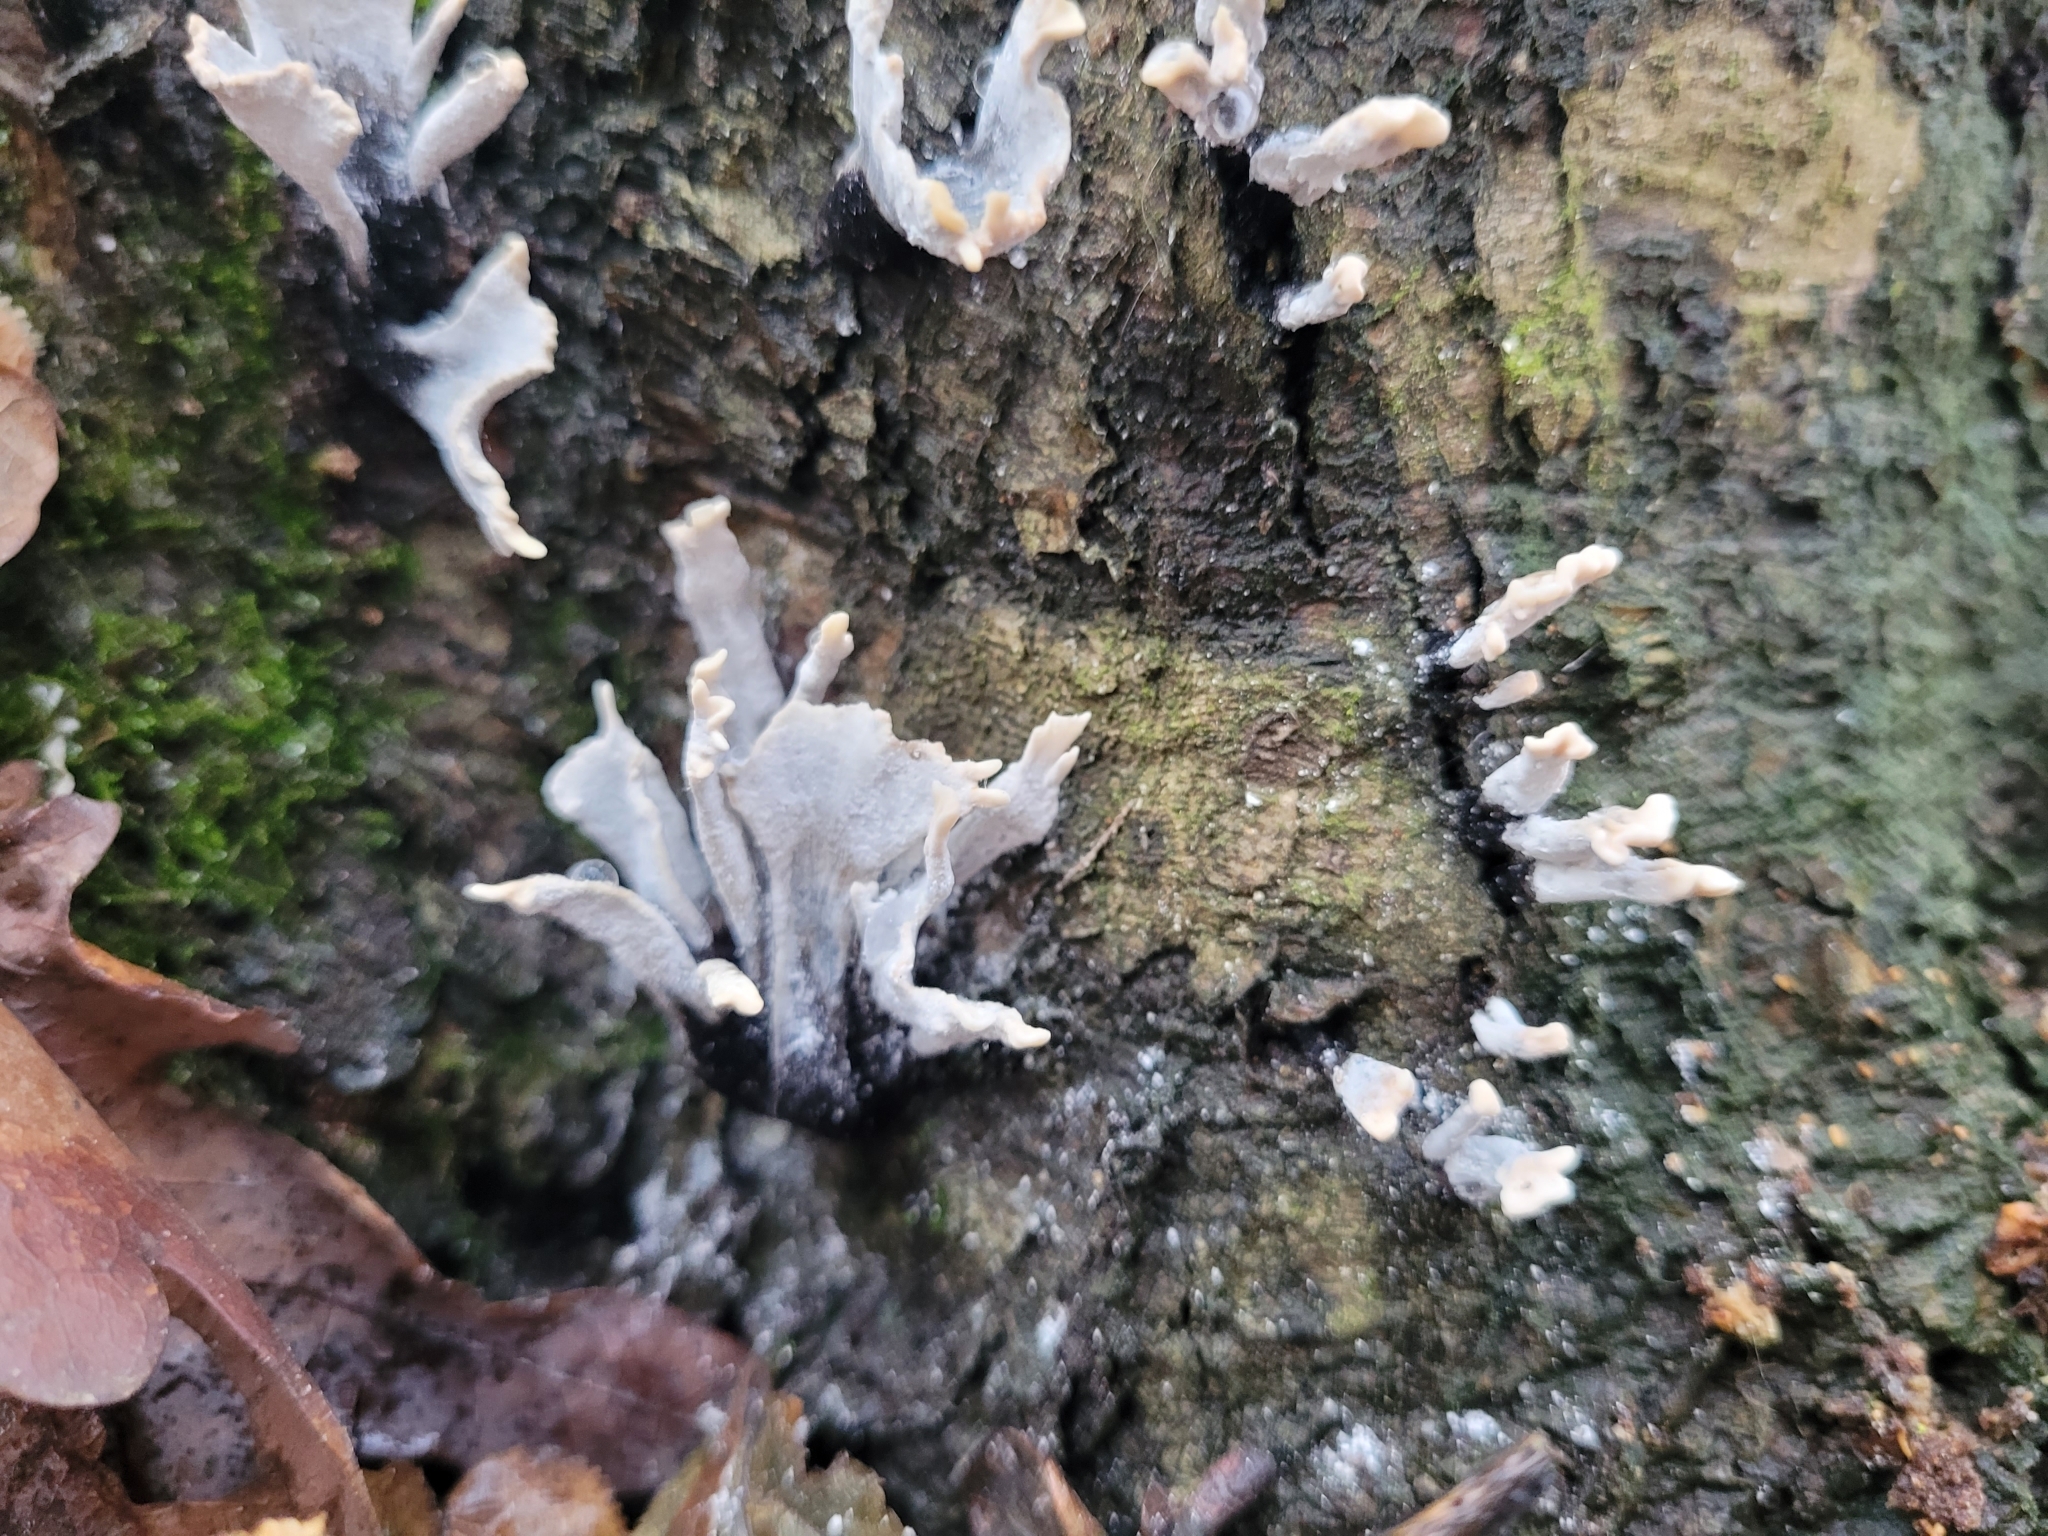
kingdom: Fungi
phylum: Ascomycota
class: Sordariomycetes
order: Xylariales
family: Xylariaceae
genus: Xylaria
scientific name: Xylaria hypoxylon
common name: Candle-snuff fungus
